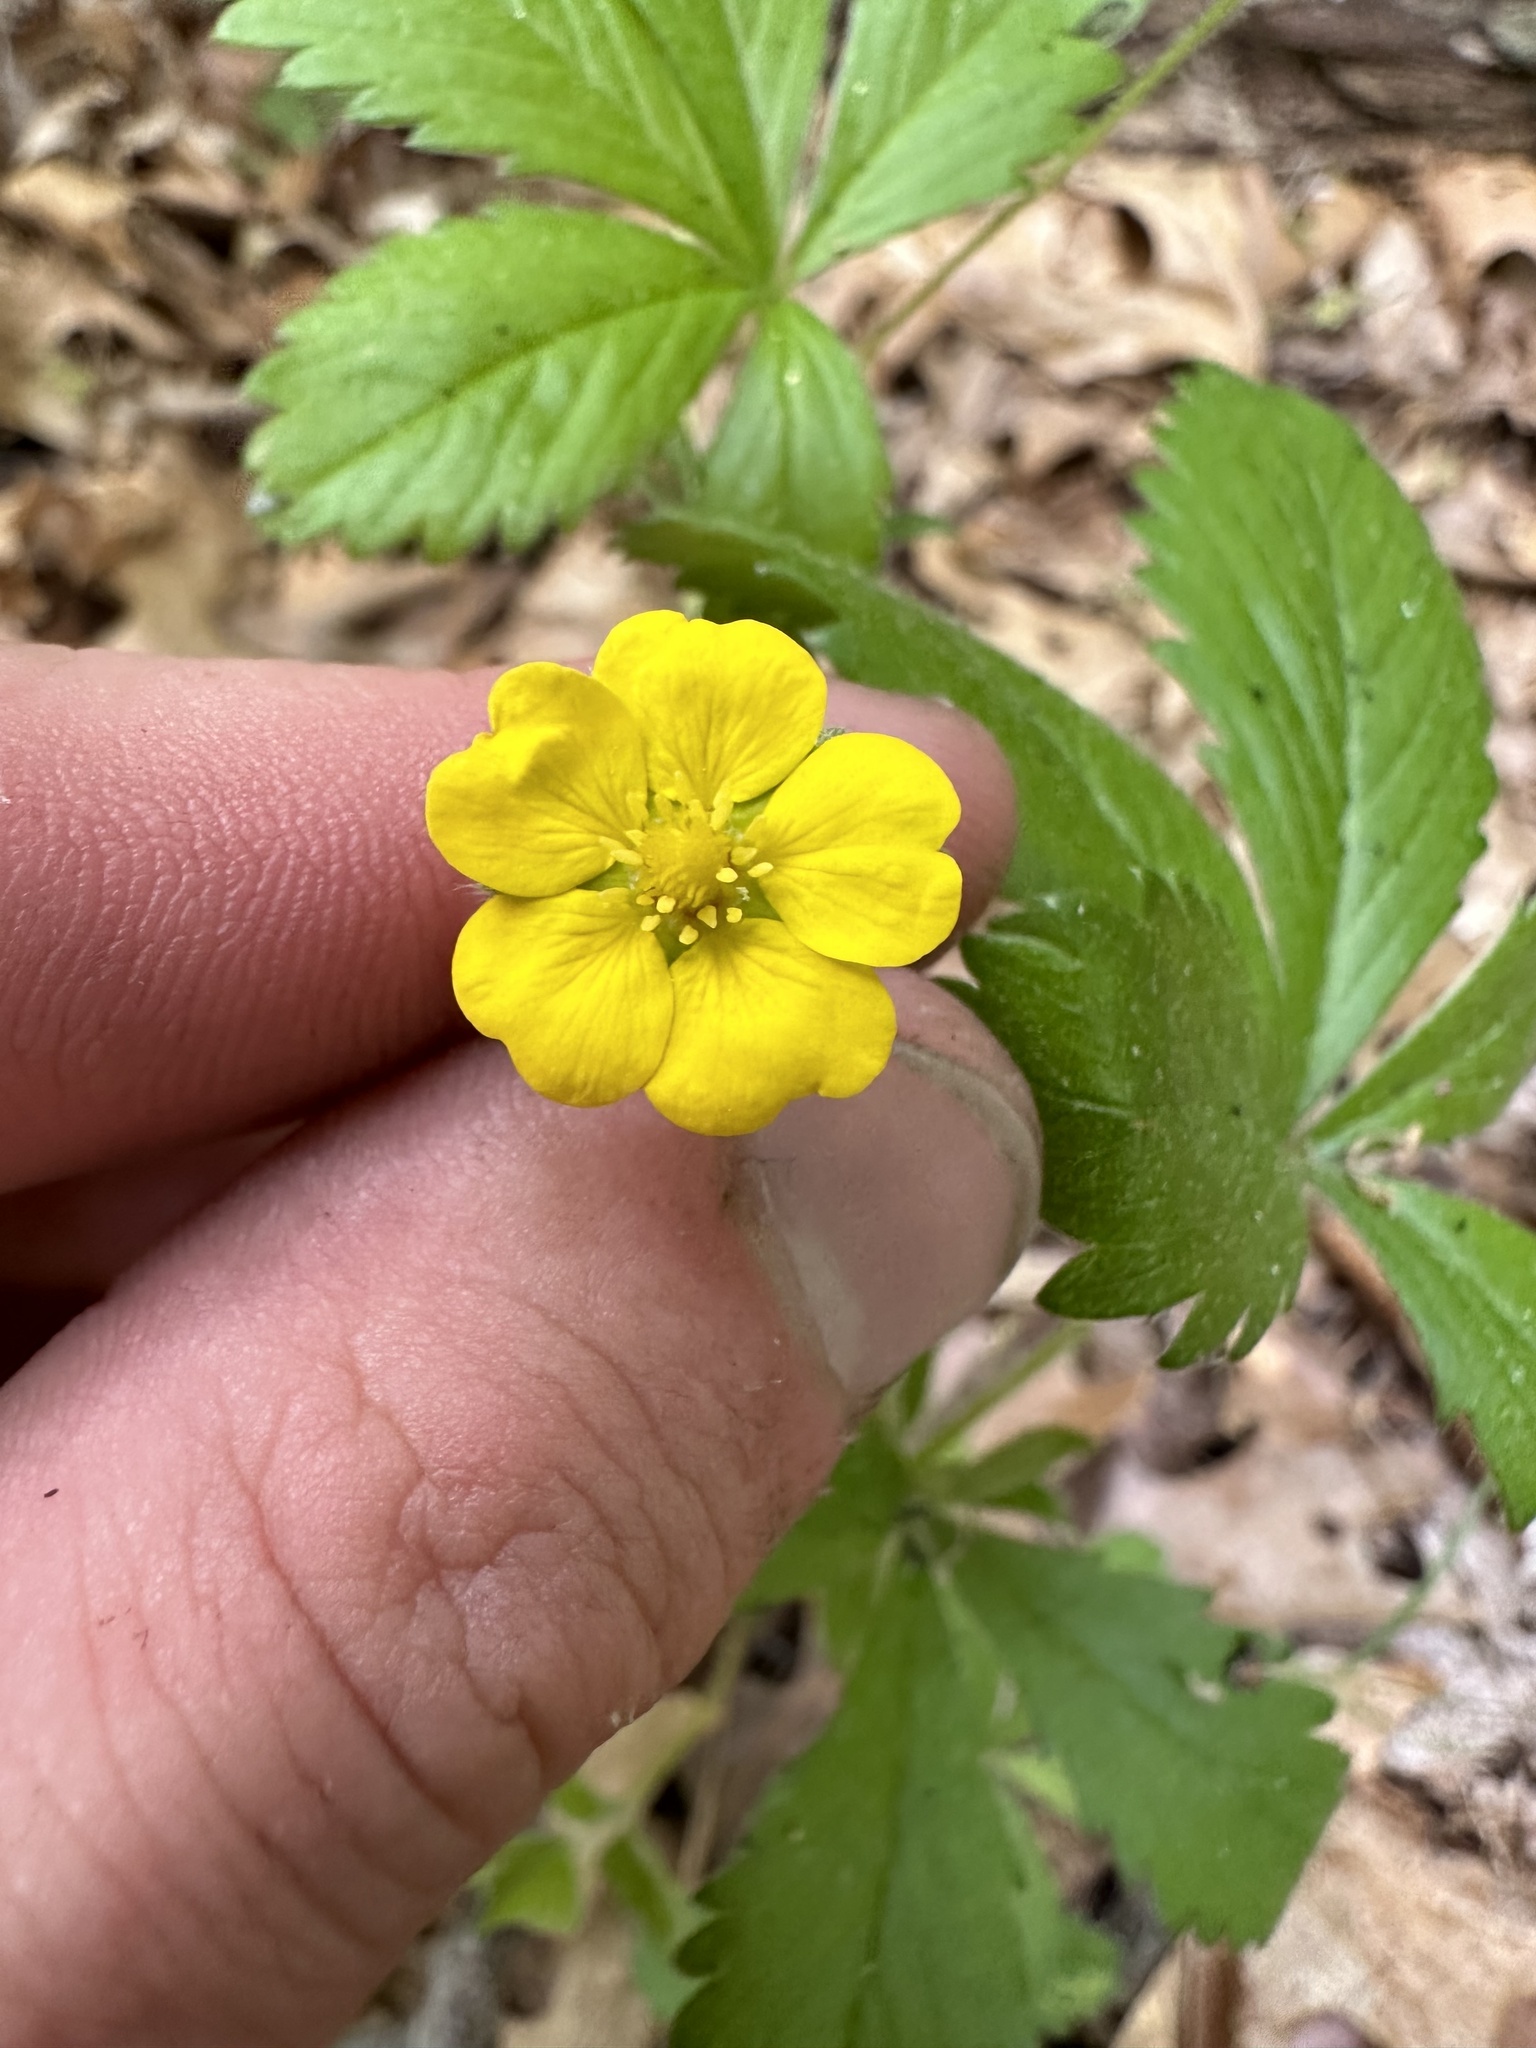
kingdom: Plantae
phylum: Tracheophyta
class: Magnoliopsida
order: Rosales
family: Rosaceae
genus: Potentilla
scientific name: Potentilla simplex
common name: Old field cinquefoil
